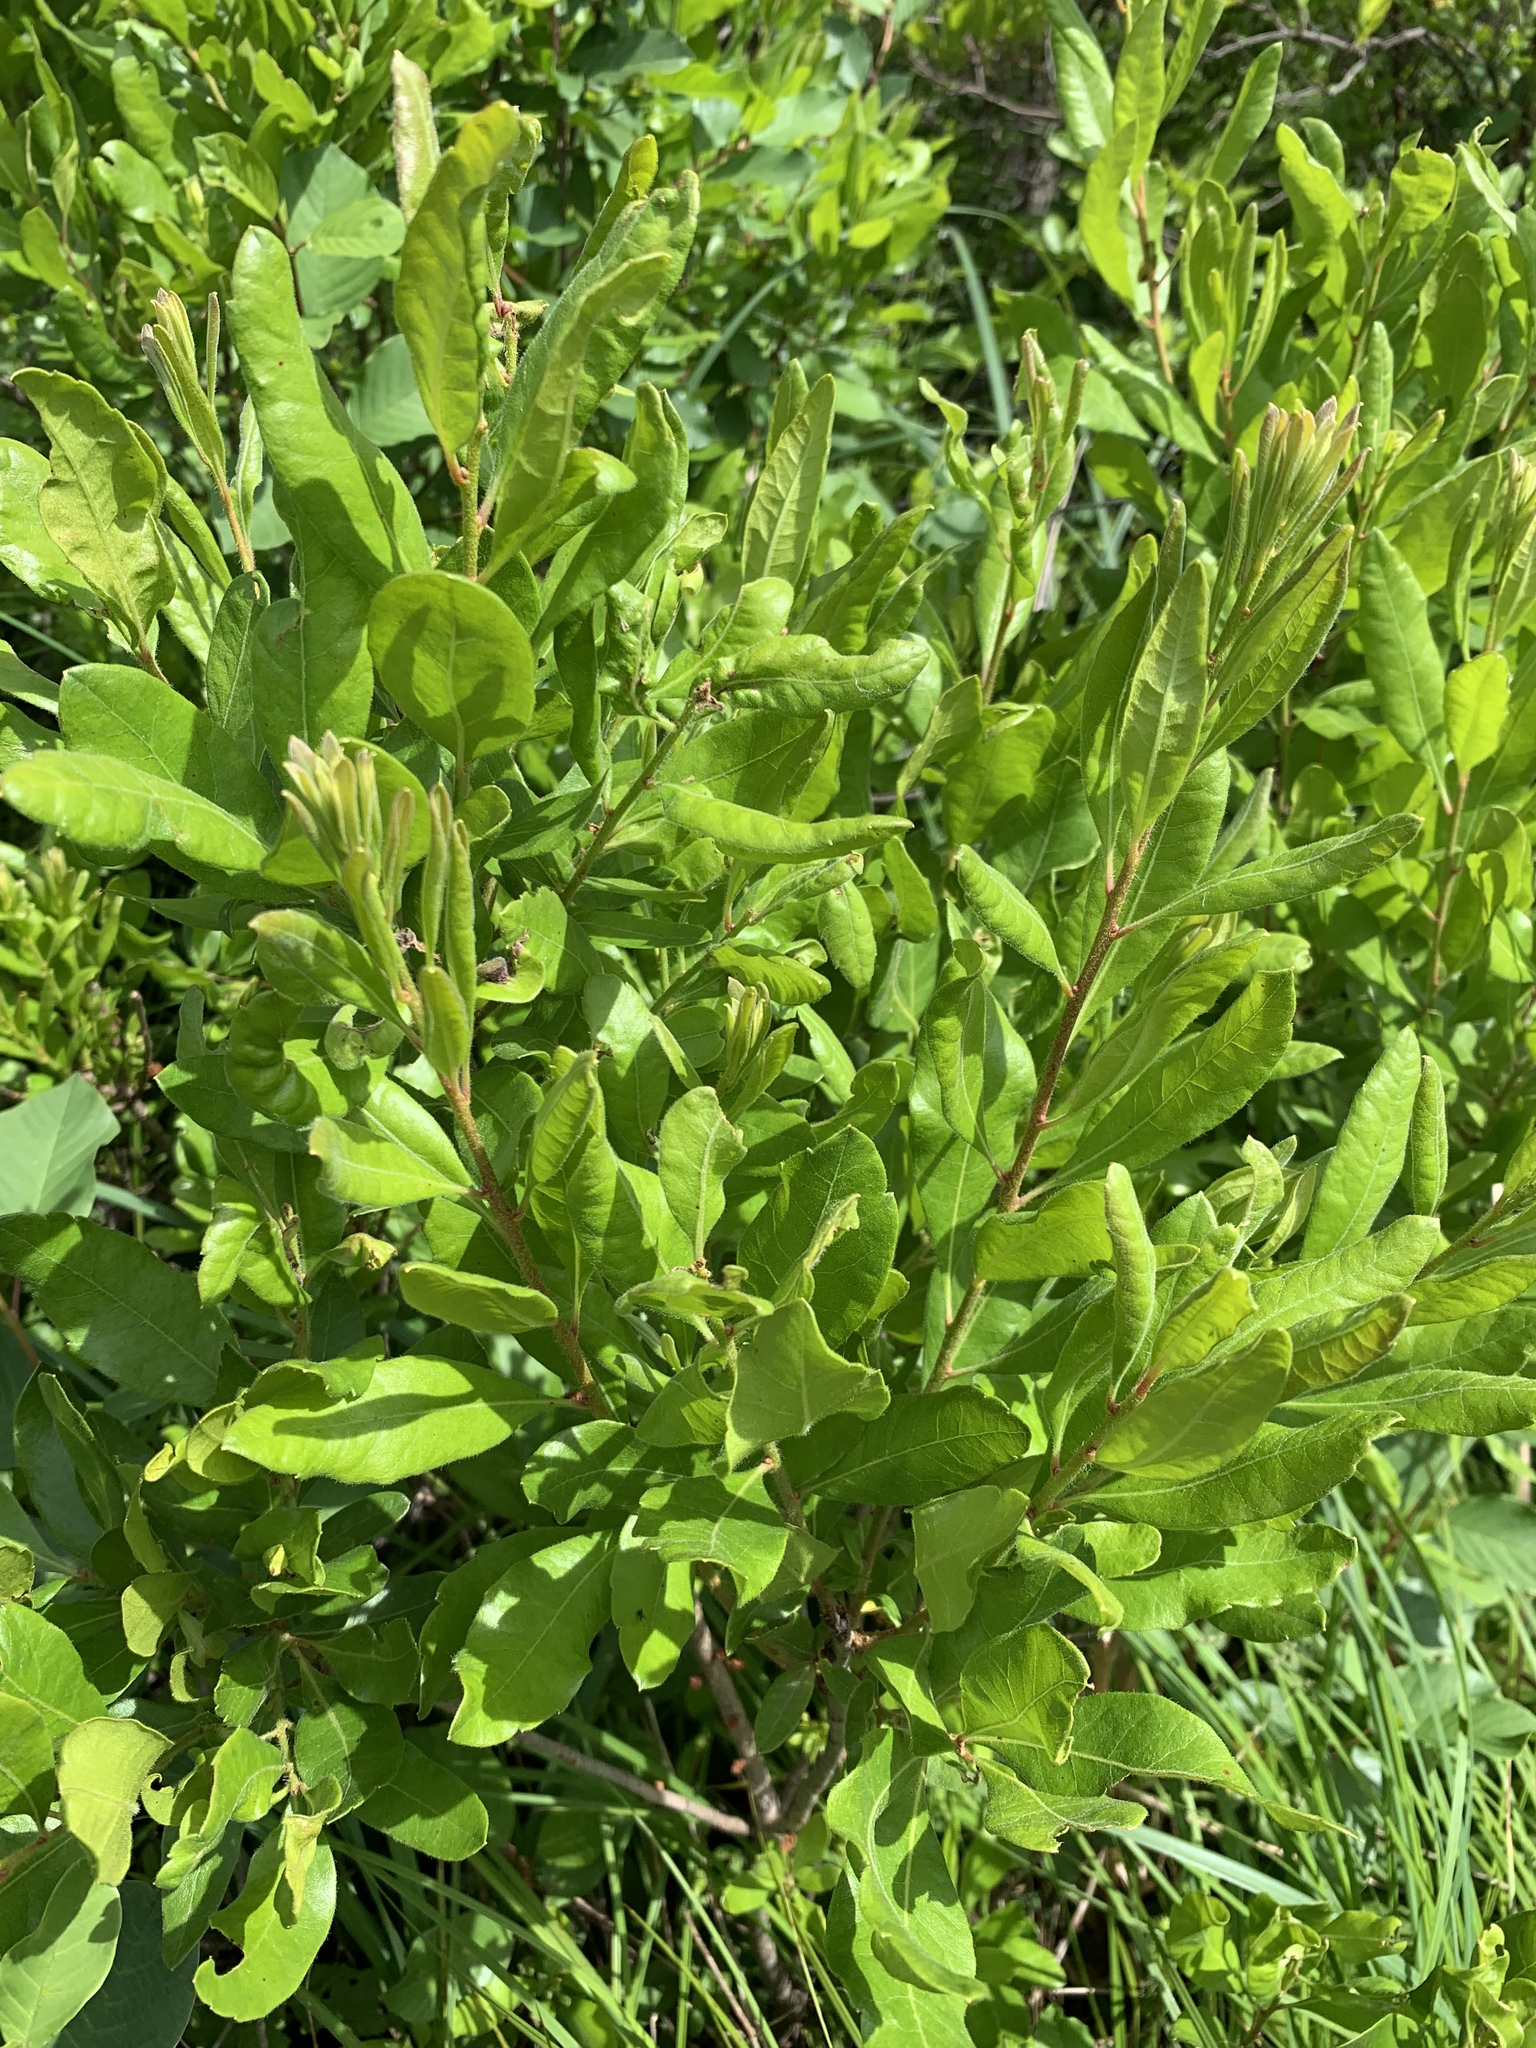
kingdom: Plantae
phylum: Tracheophyta
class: Magnoliopsida
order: Fagales
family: Myricaceae
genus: Morella
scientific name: Morella pensylvanica
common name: Northern bayberry
